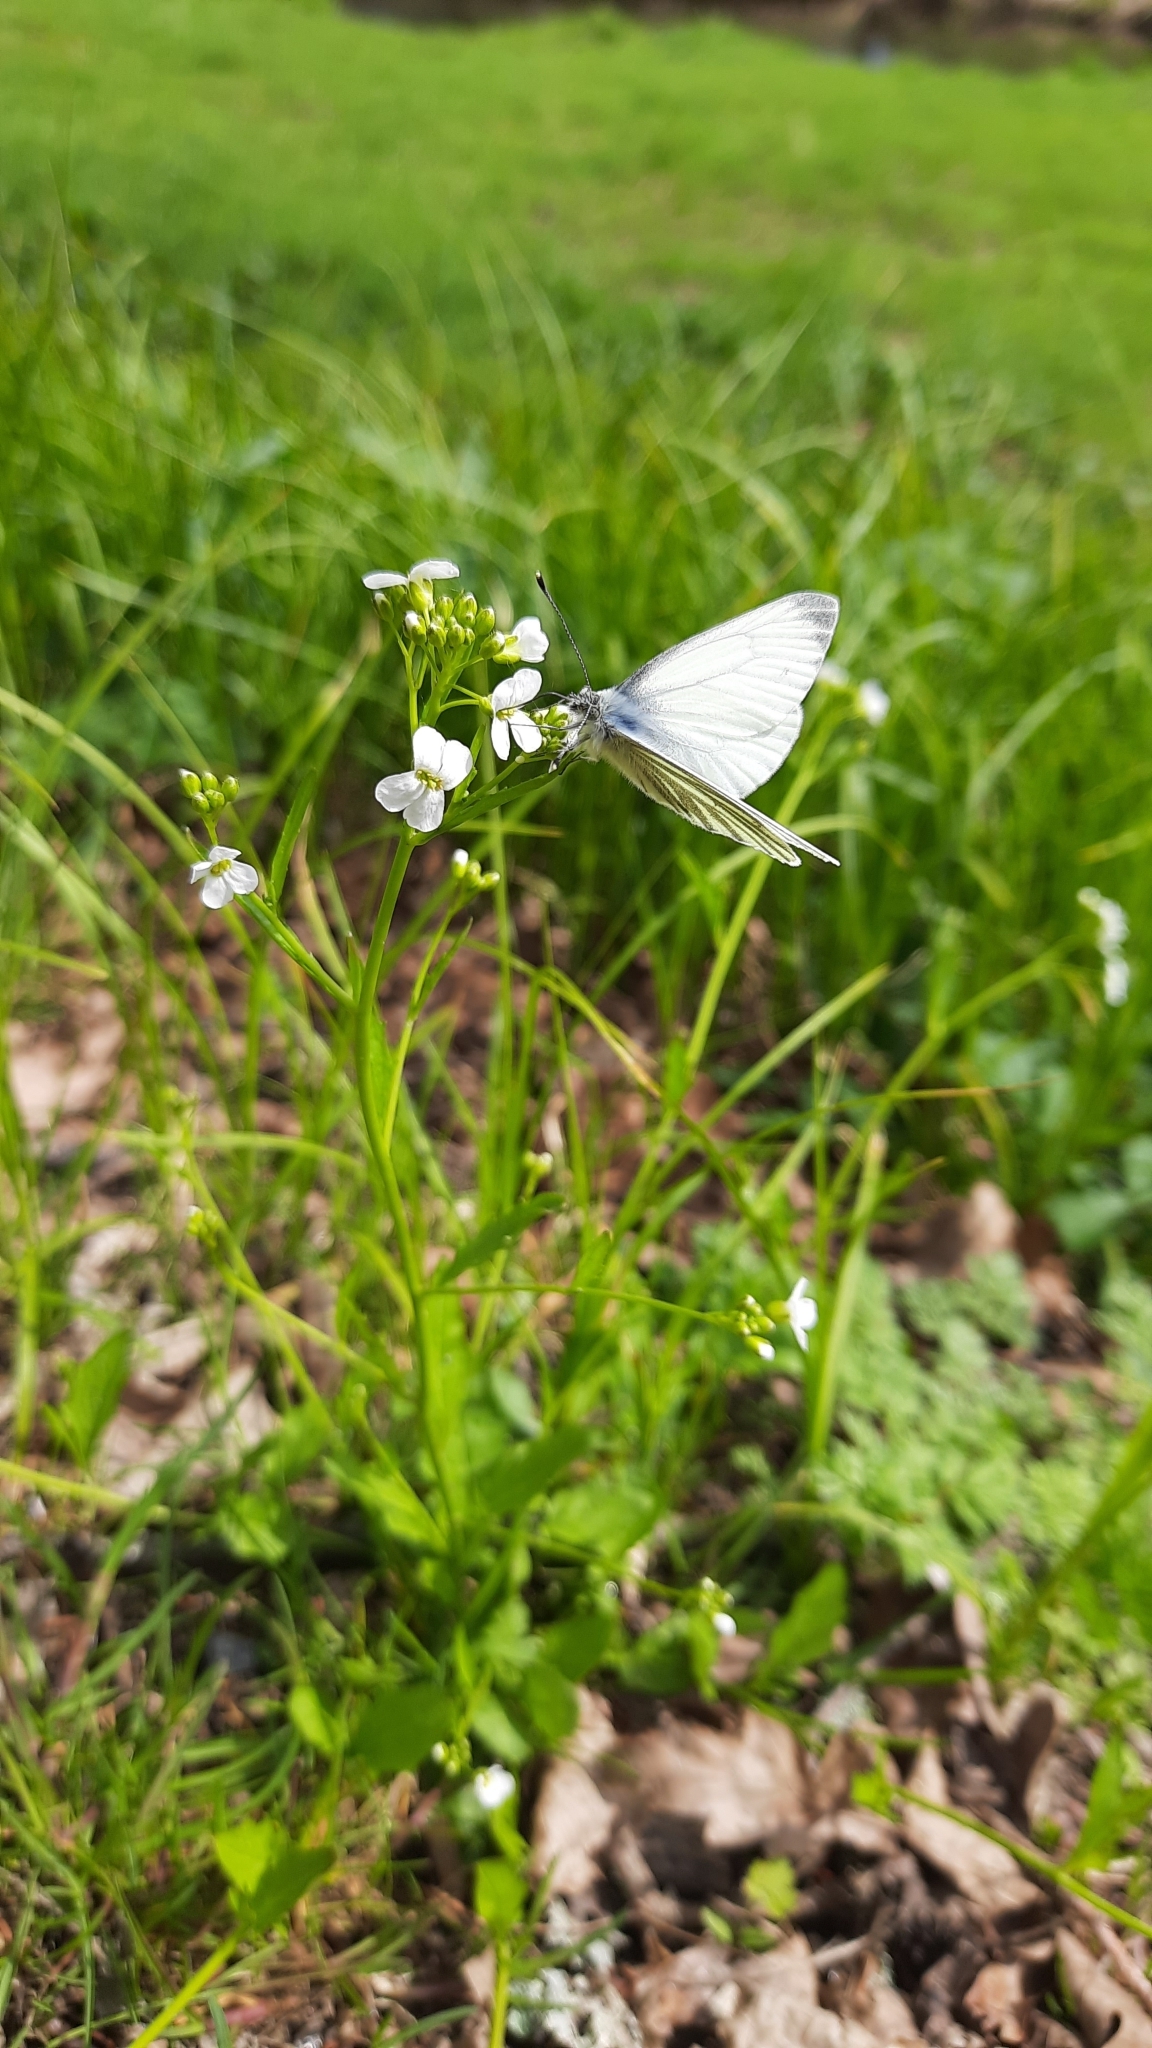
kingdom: Animalia
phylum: Arthropoda
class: Insecta
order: Lepidoptera
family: Pieridae
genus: Pieris
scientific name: Pieris napi
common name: Green-veined white
